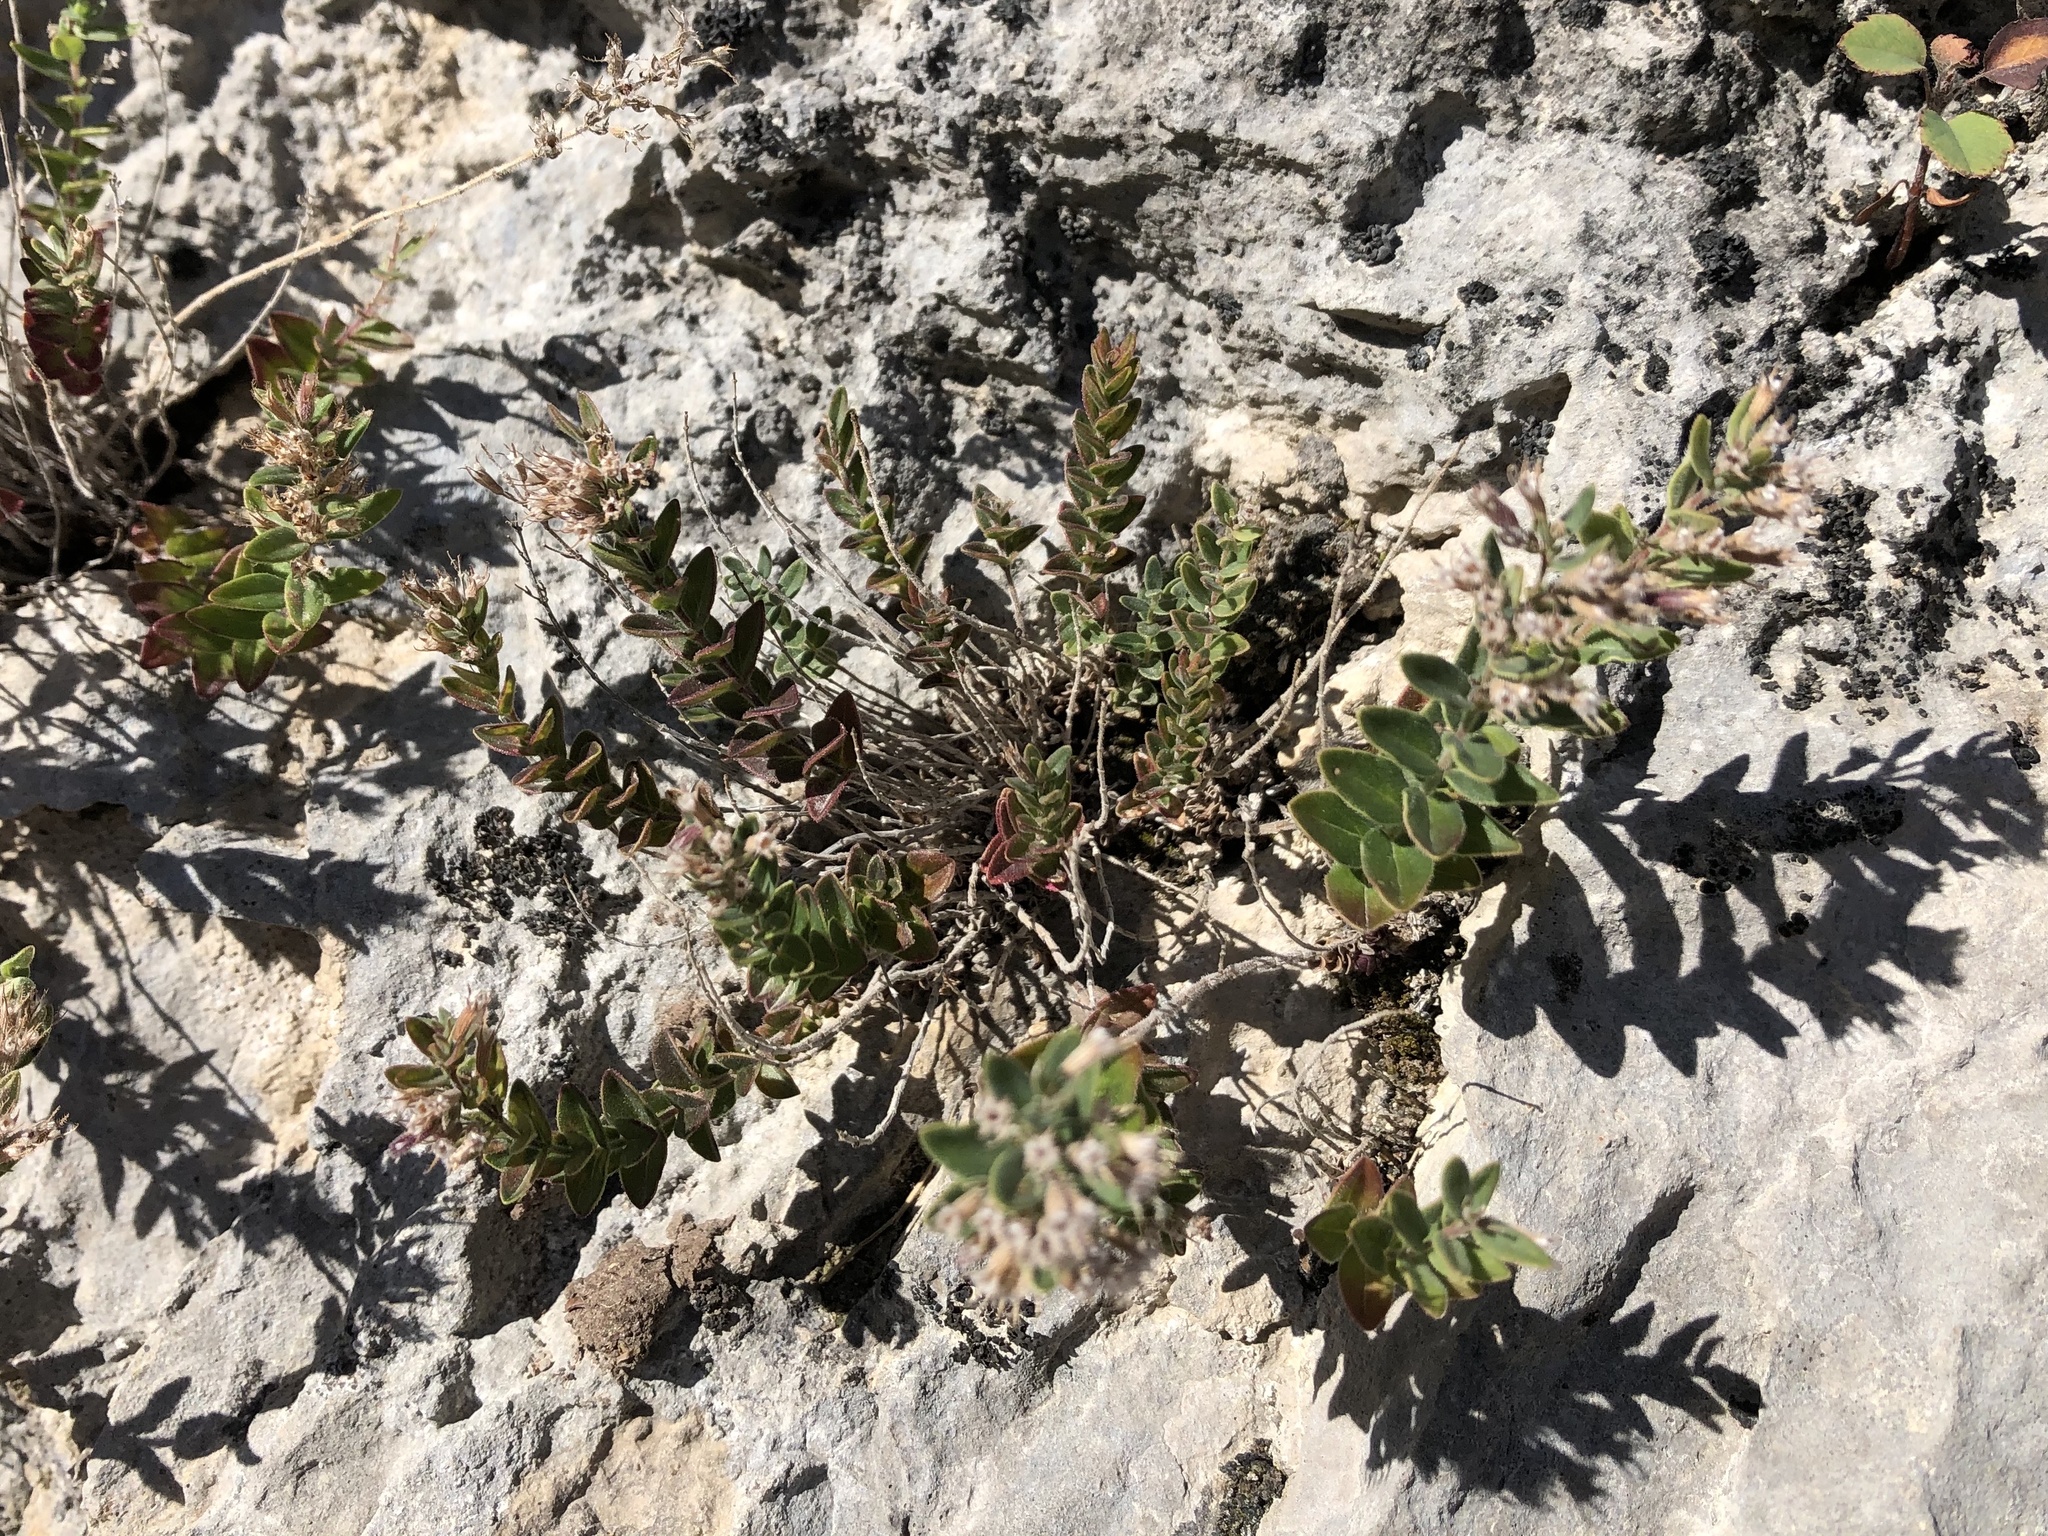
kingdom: Plantae
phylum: Tracheophyta
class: Magnoliopsida
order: Lamiales
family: Lamiaceae
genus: Micromeria
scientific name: Micromeria croatica
